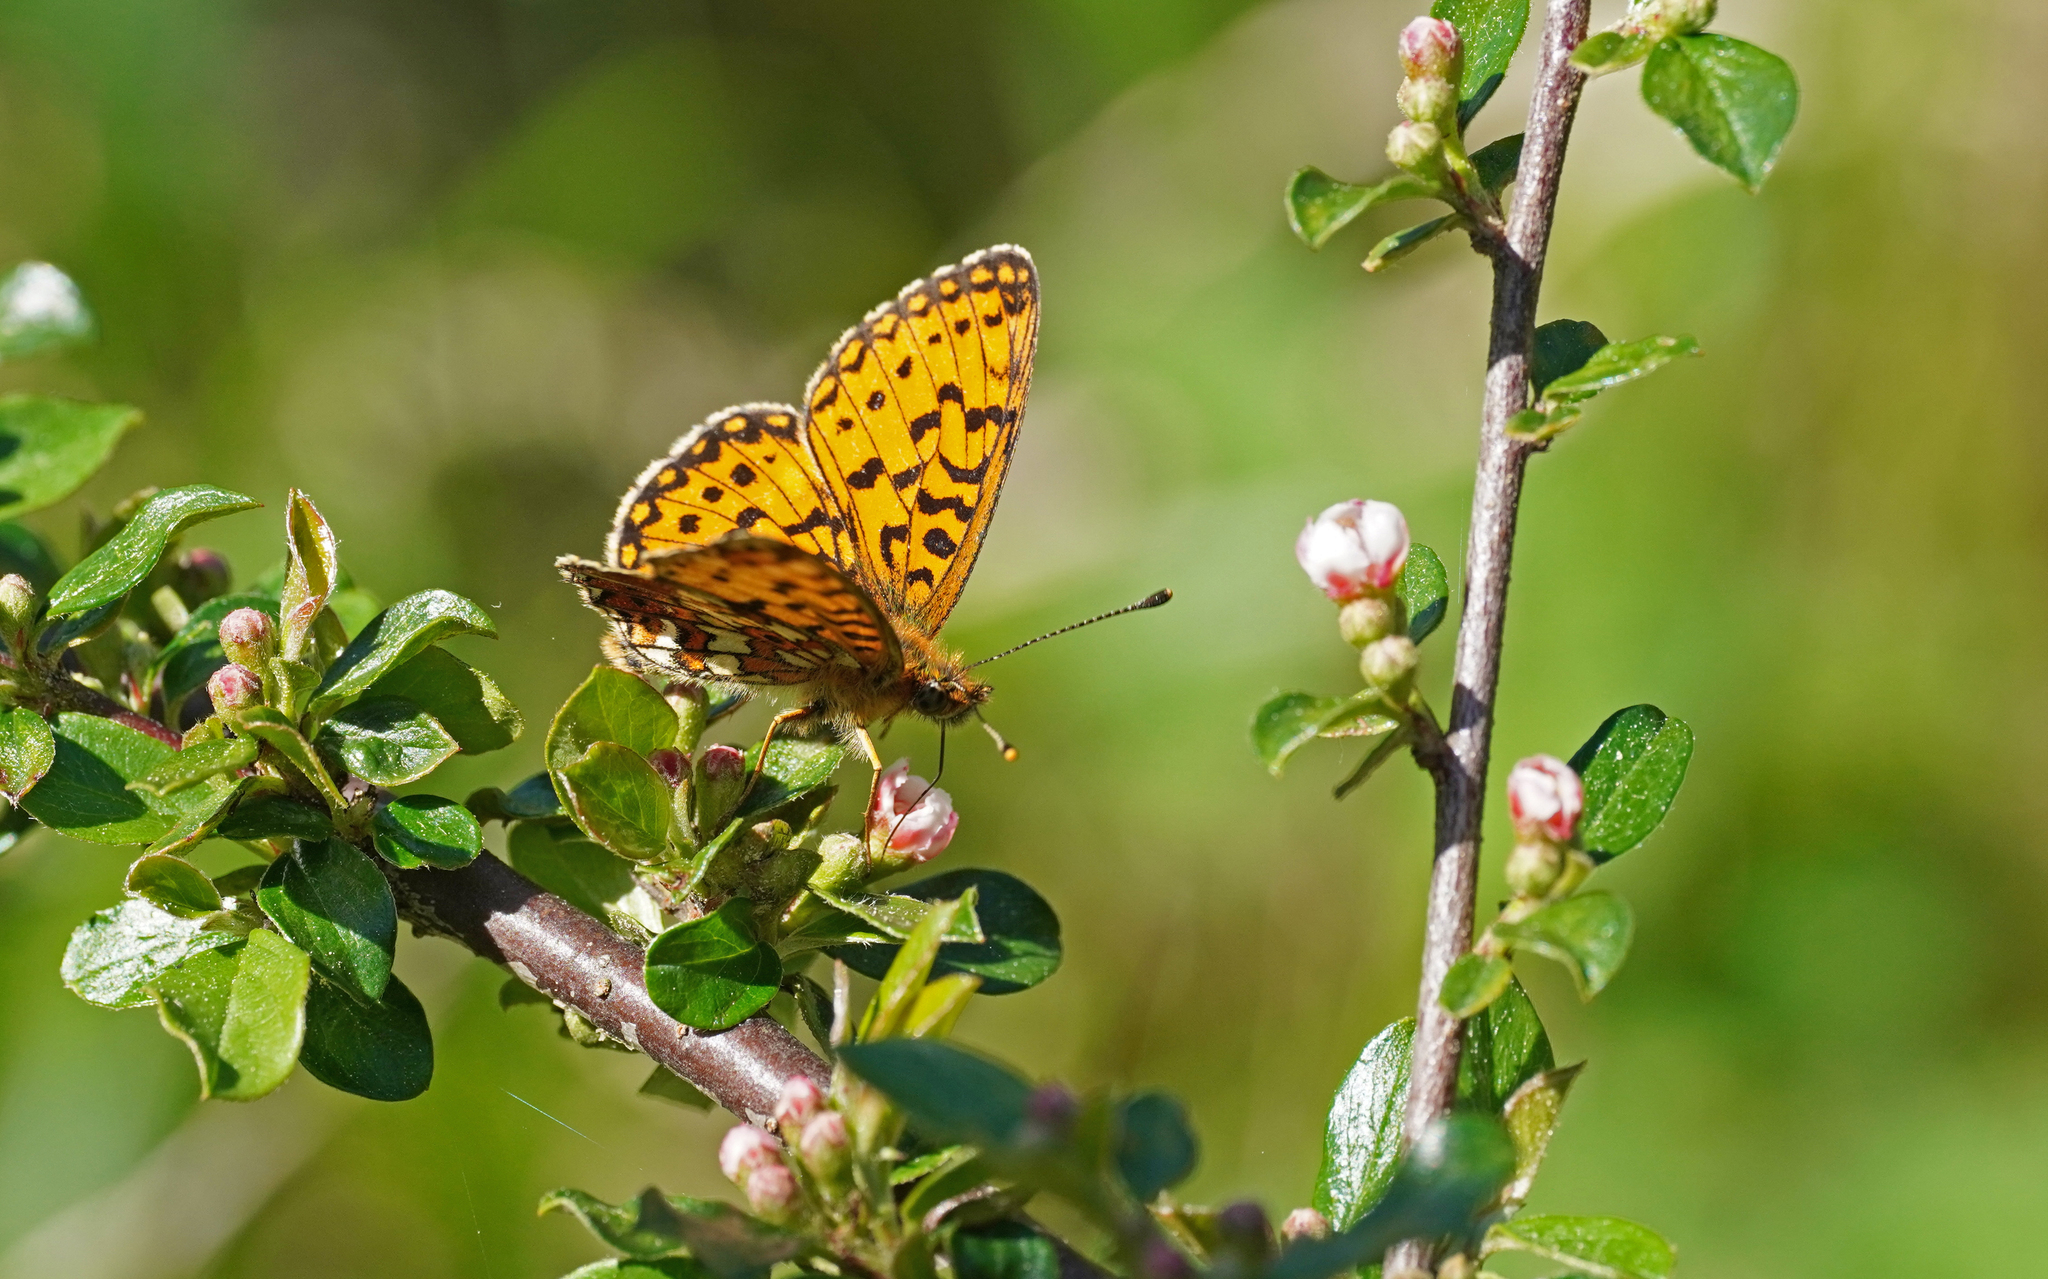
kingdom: Animalia
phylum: Arthropoda
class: Insecta
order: Lepidoptera
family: Nymphalidae
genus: Boloria
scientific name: Boloria selene
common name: Small pearl-bordered fritillary
